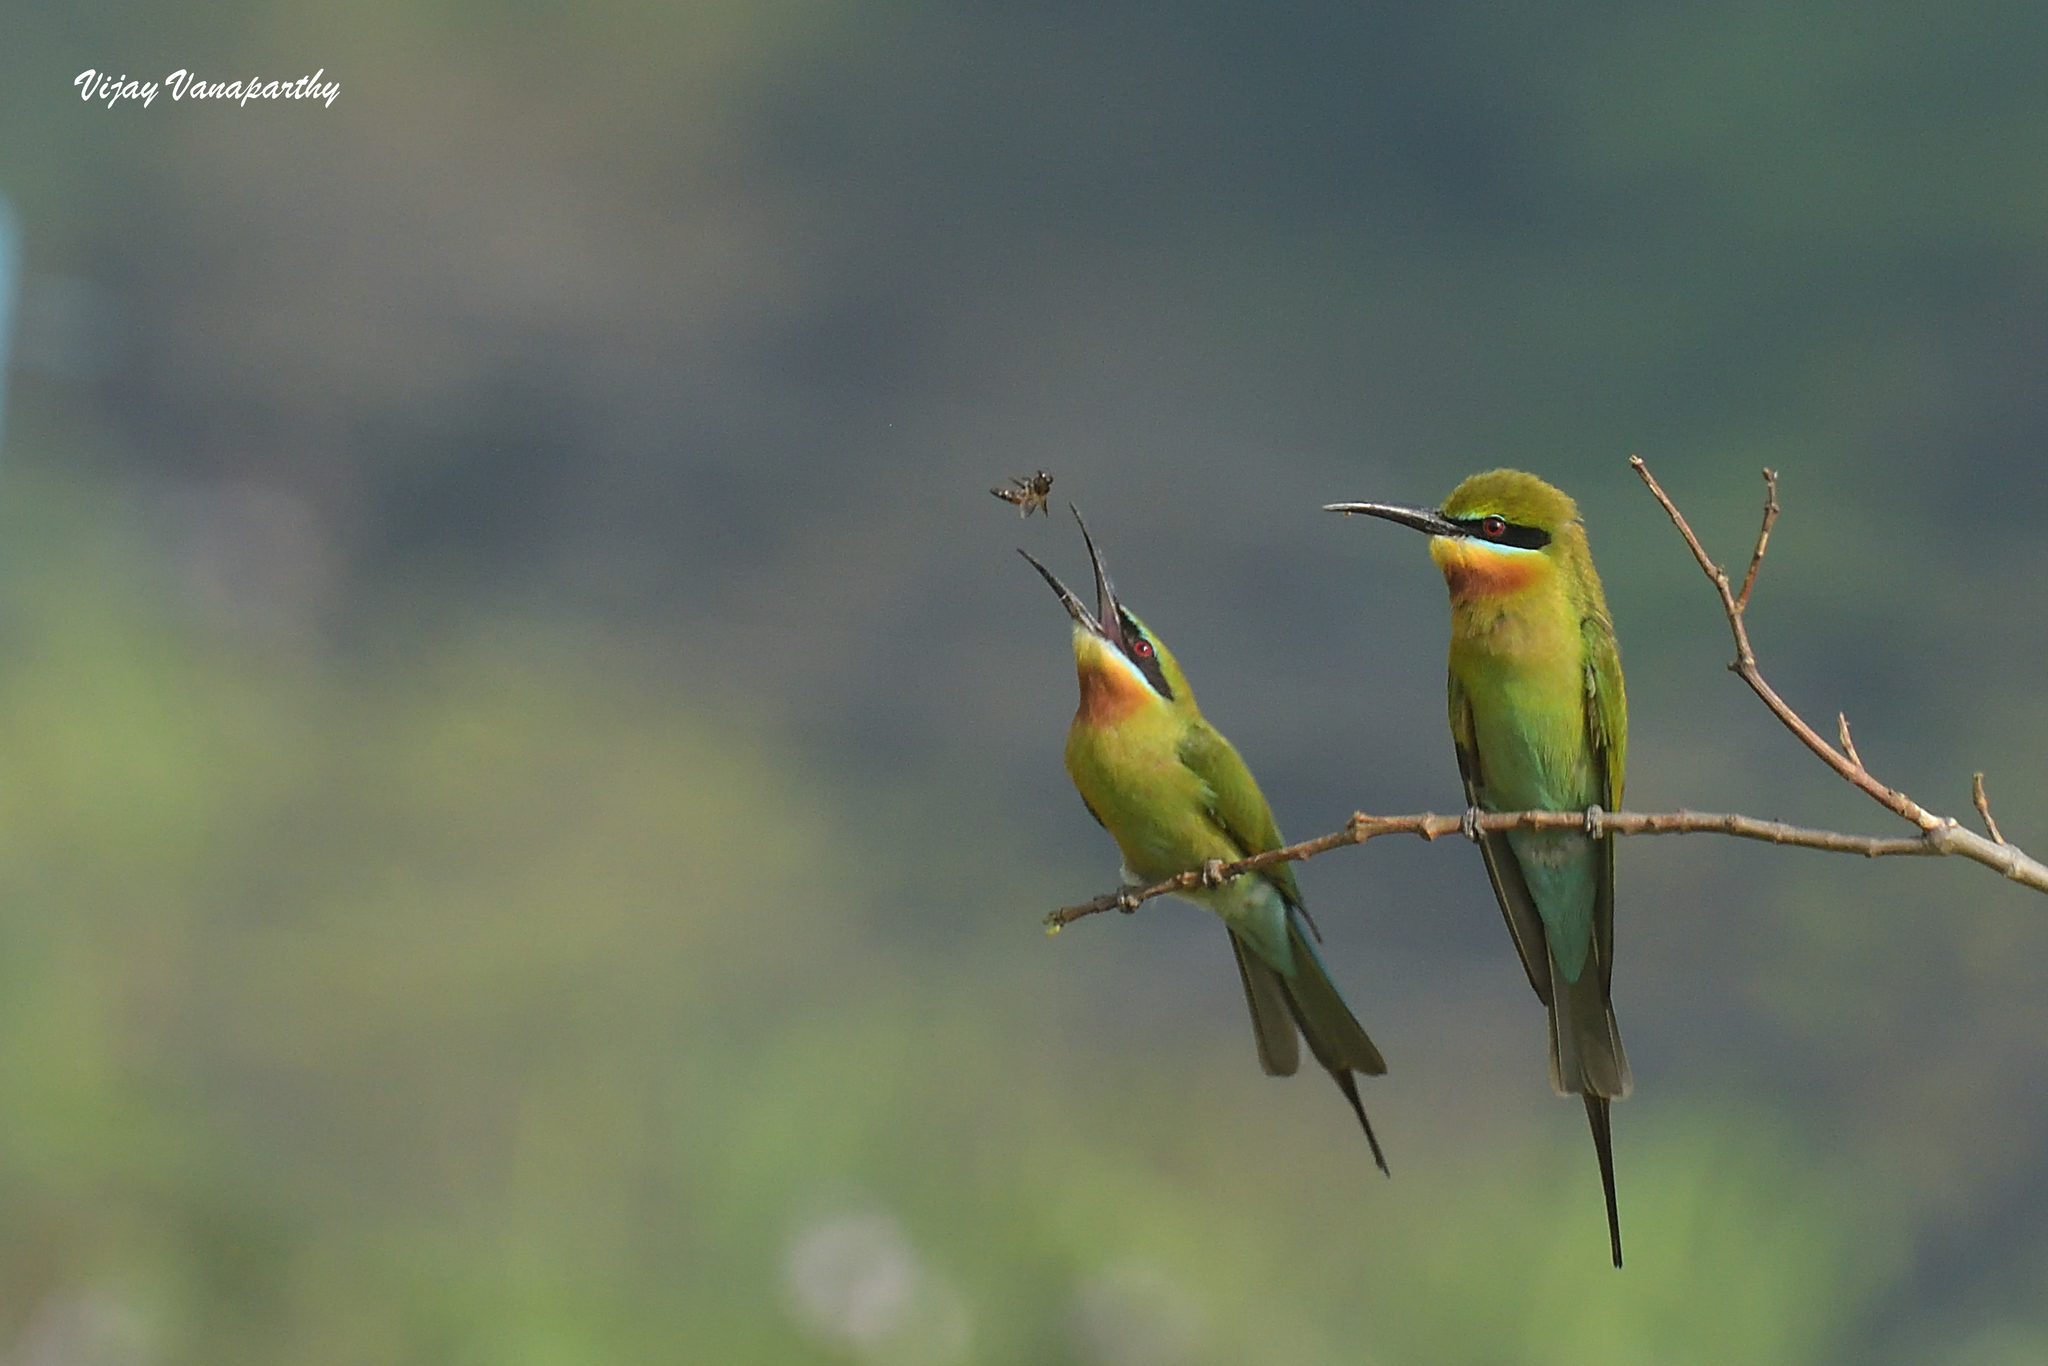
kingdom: Animalia
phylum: Chordata
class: Aves
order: Coraciiformes
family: Meropidae
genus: Merops
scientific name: Merops philippinus
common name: Blue-tailed bee-eater
